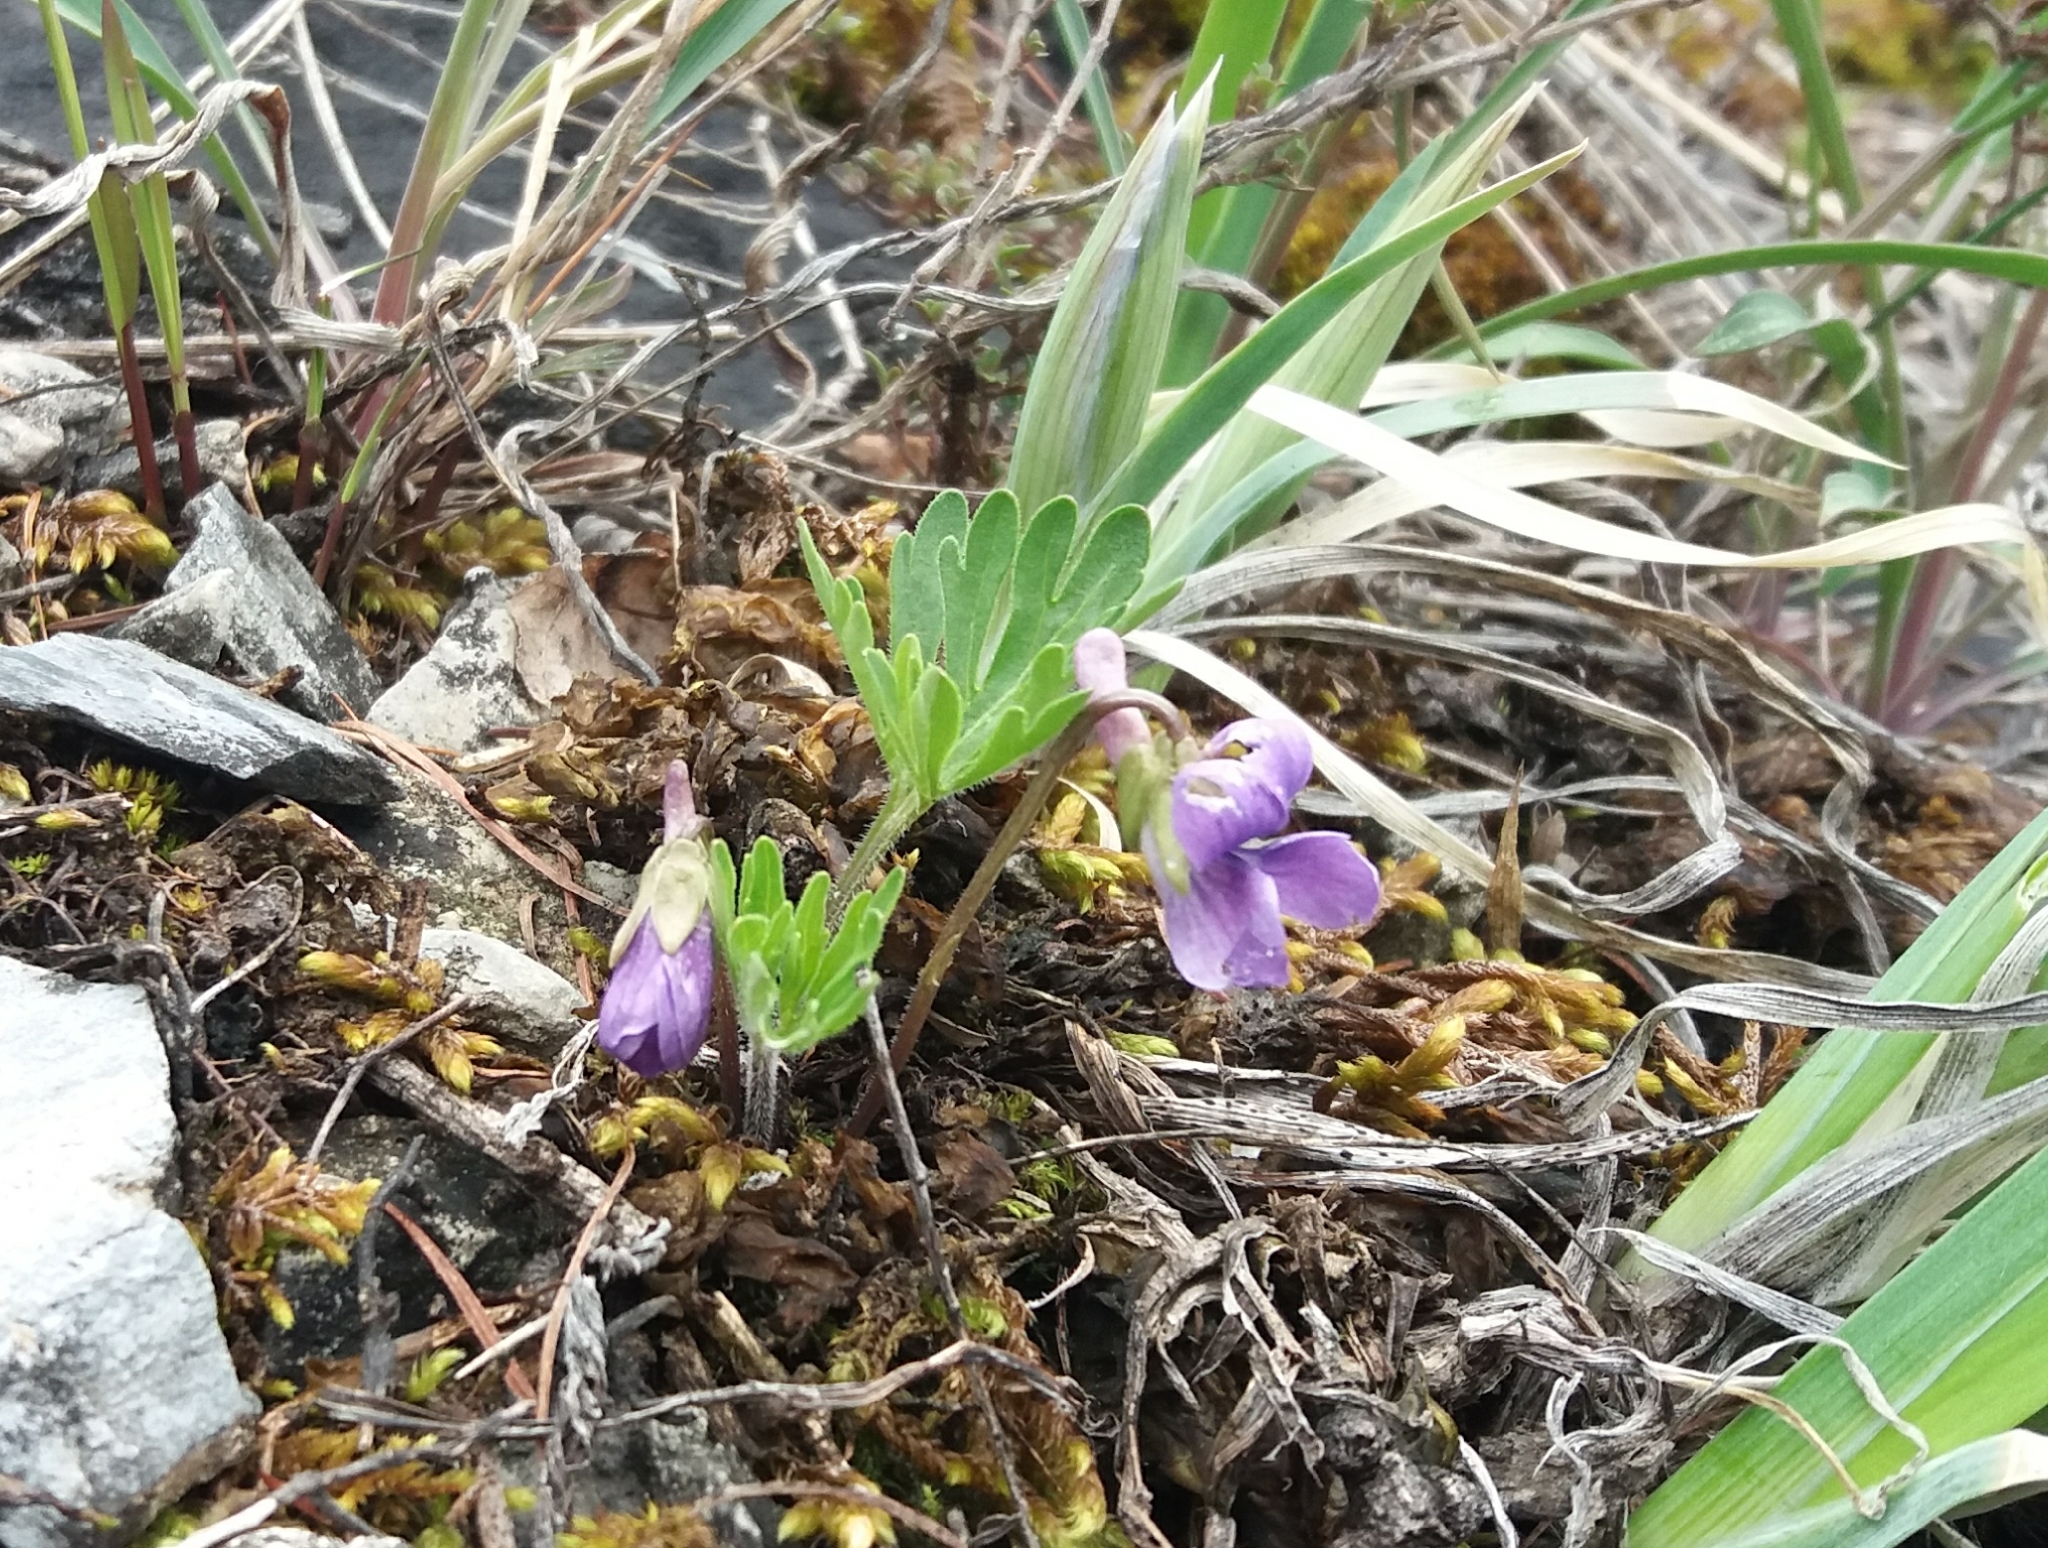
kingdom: Plantae
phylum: Tracheophyta
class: Magnoliopsida
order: Malpighiales
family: Violaceae
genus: Viola
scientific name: Viola multifida
